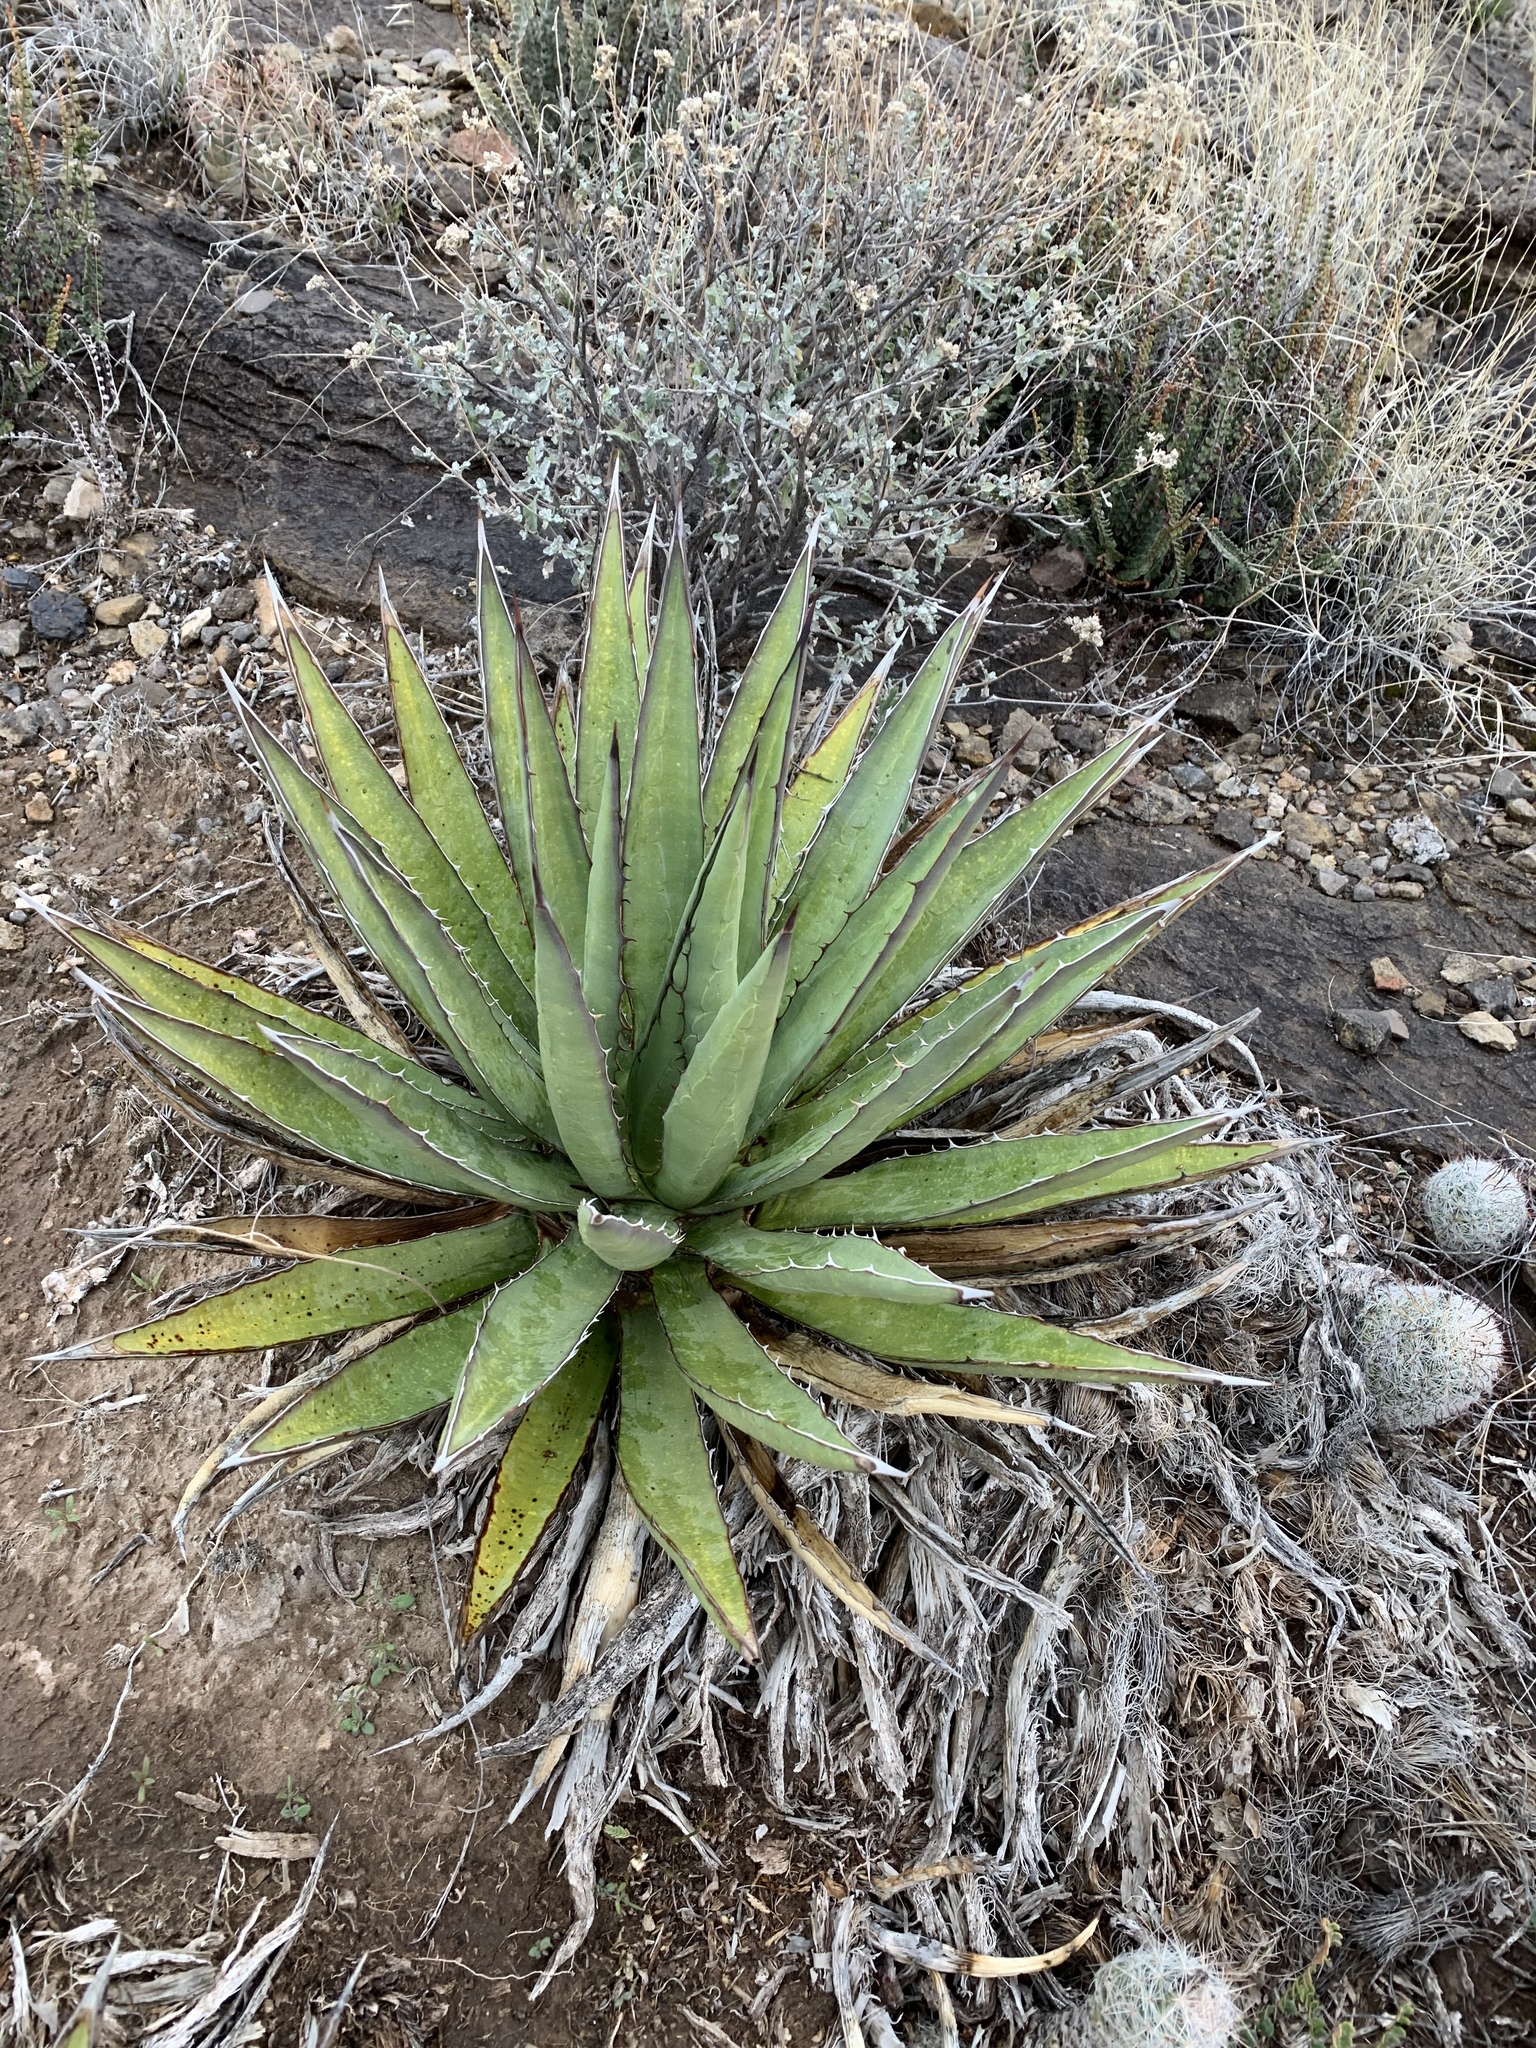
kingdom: Plantae
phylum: Tracheophyta
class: Liliopsida
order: Asparagales
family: Asparagaceae
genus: Agave
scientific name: Agave lechuguilla
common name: Lecheguilla agave
